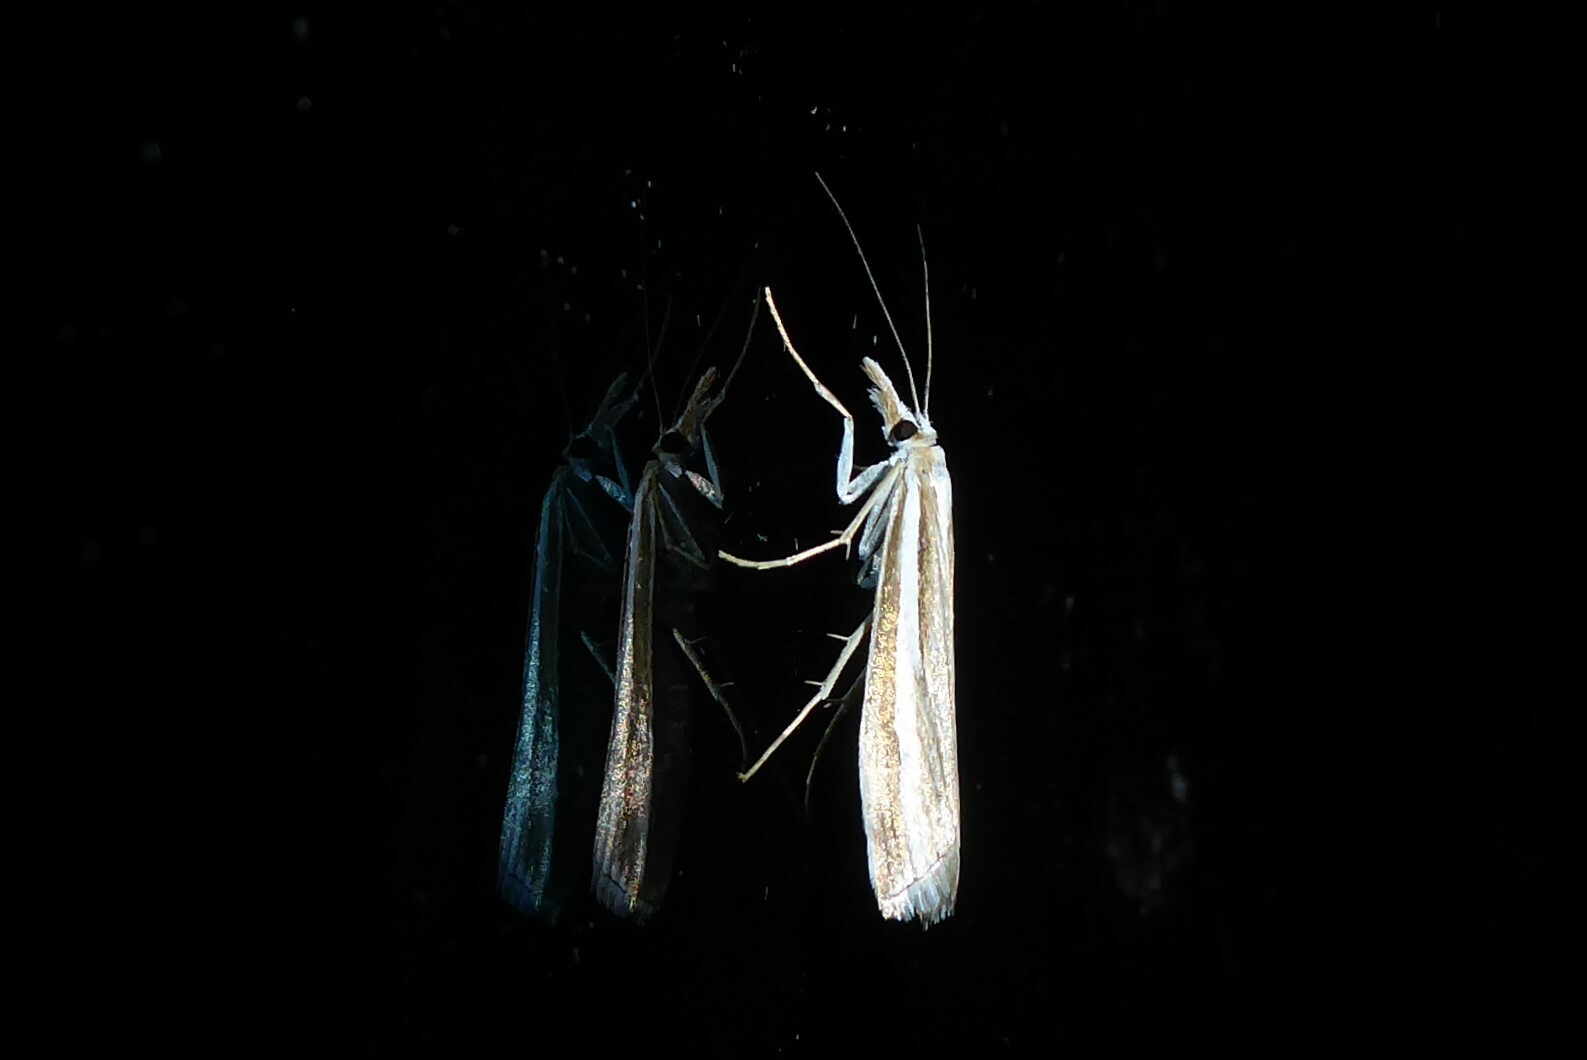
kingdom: Animalia
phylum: Arthropoda
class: Insecta
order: Lepidoptera
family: Crambidae
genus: Orocrambus
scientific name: Orocrambus vittellus
